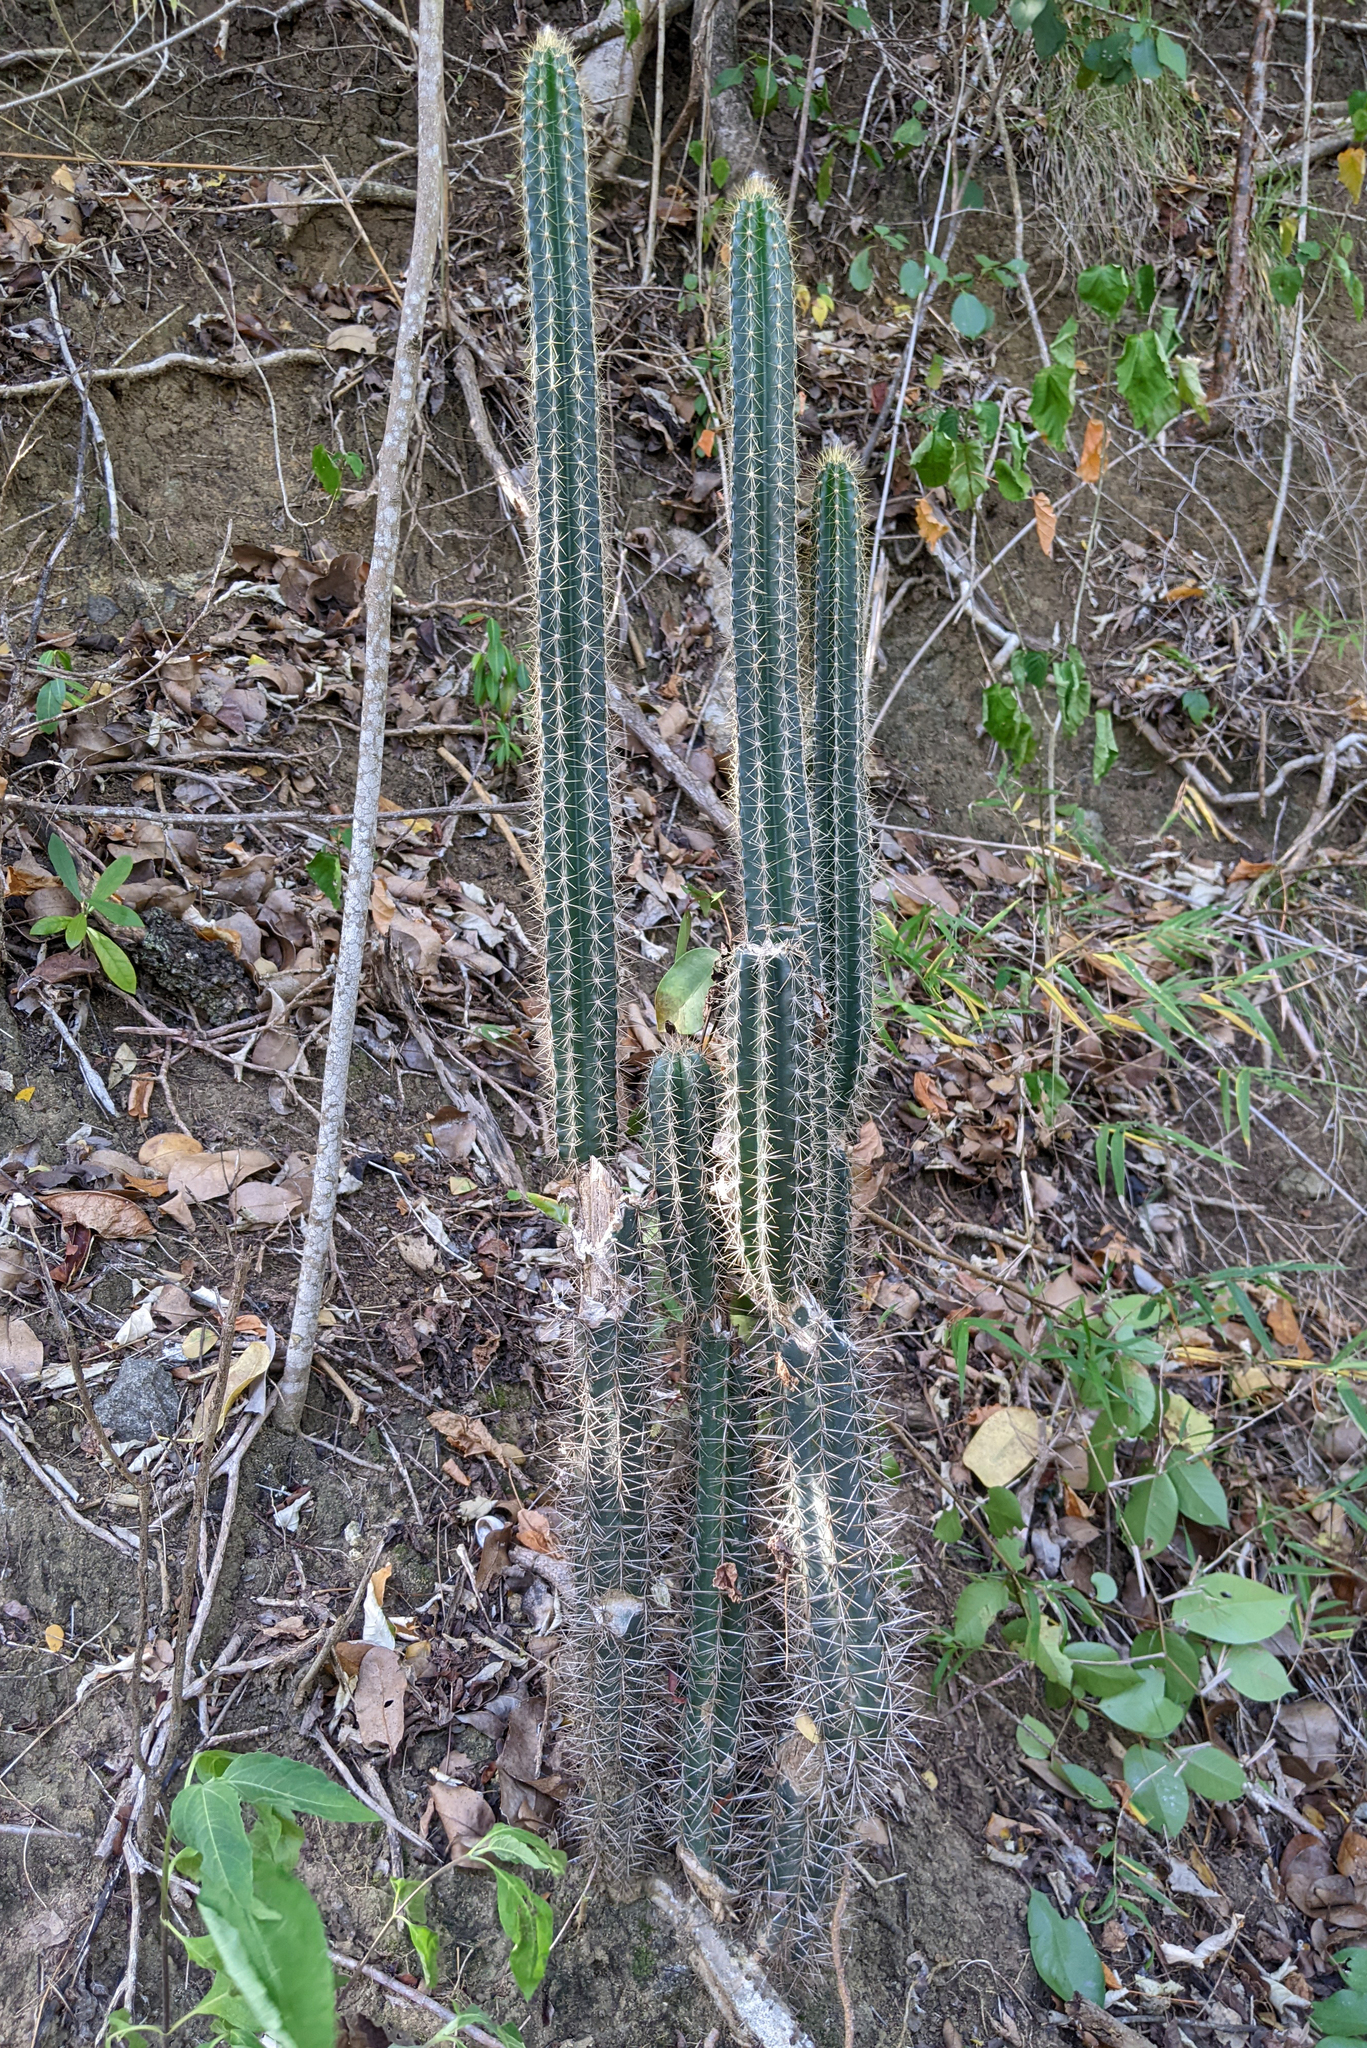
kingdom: Plantae
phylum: Tracheophyta
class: Magnoliopsida
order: Caryophyllales
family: Cactaceae
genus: Pilosocereus
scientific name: Pilosocereus curtisii
